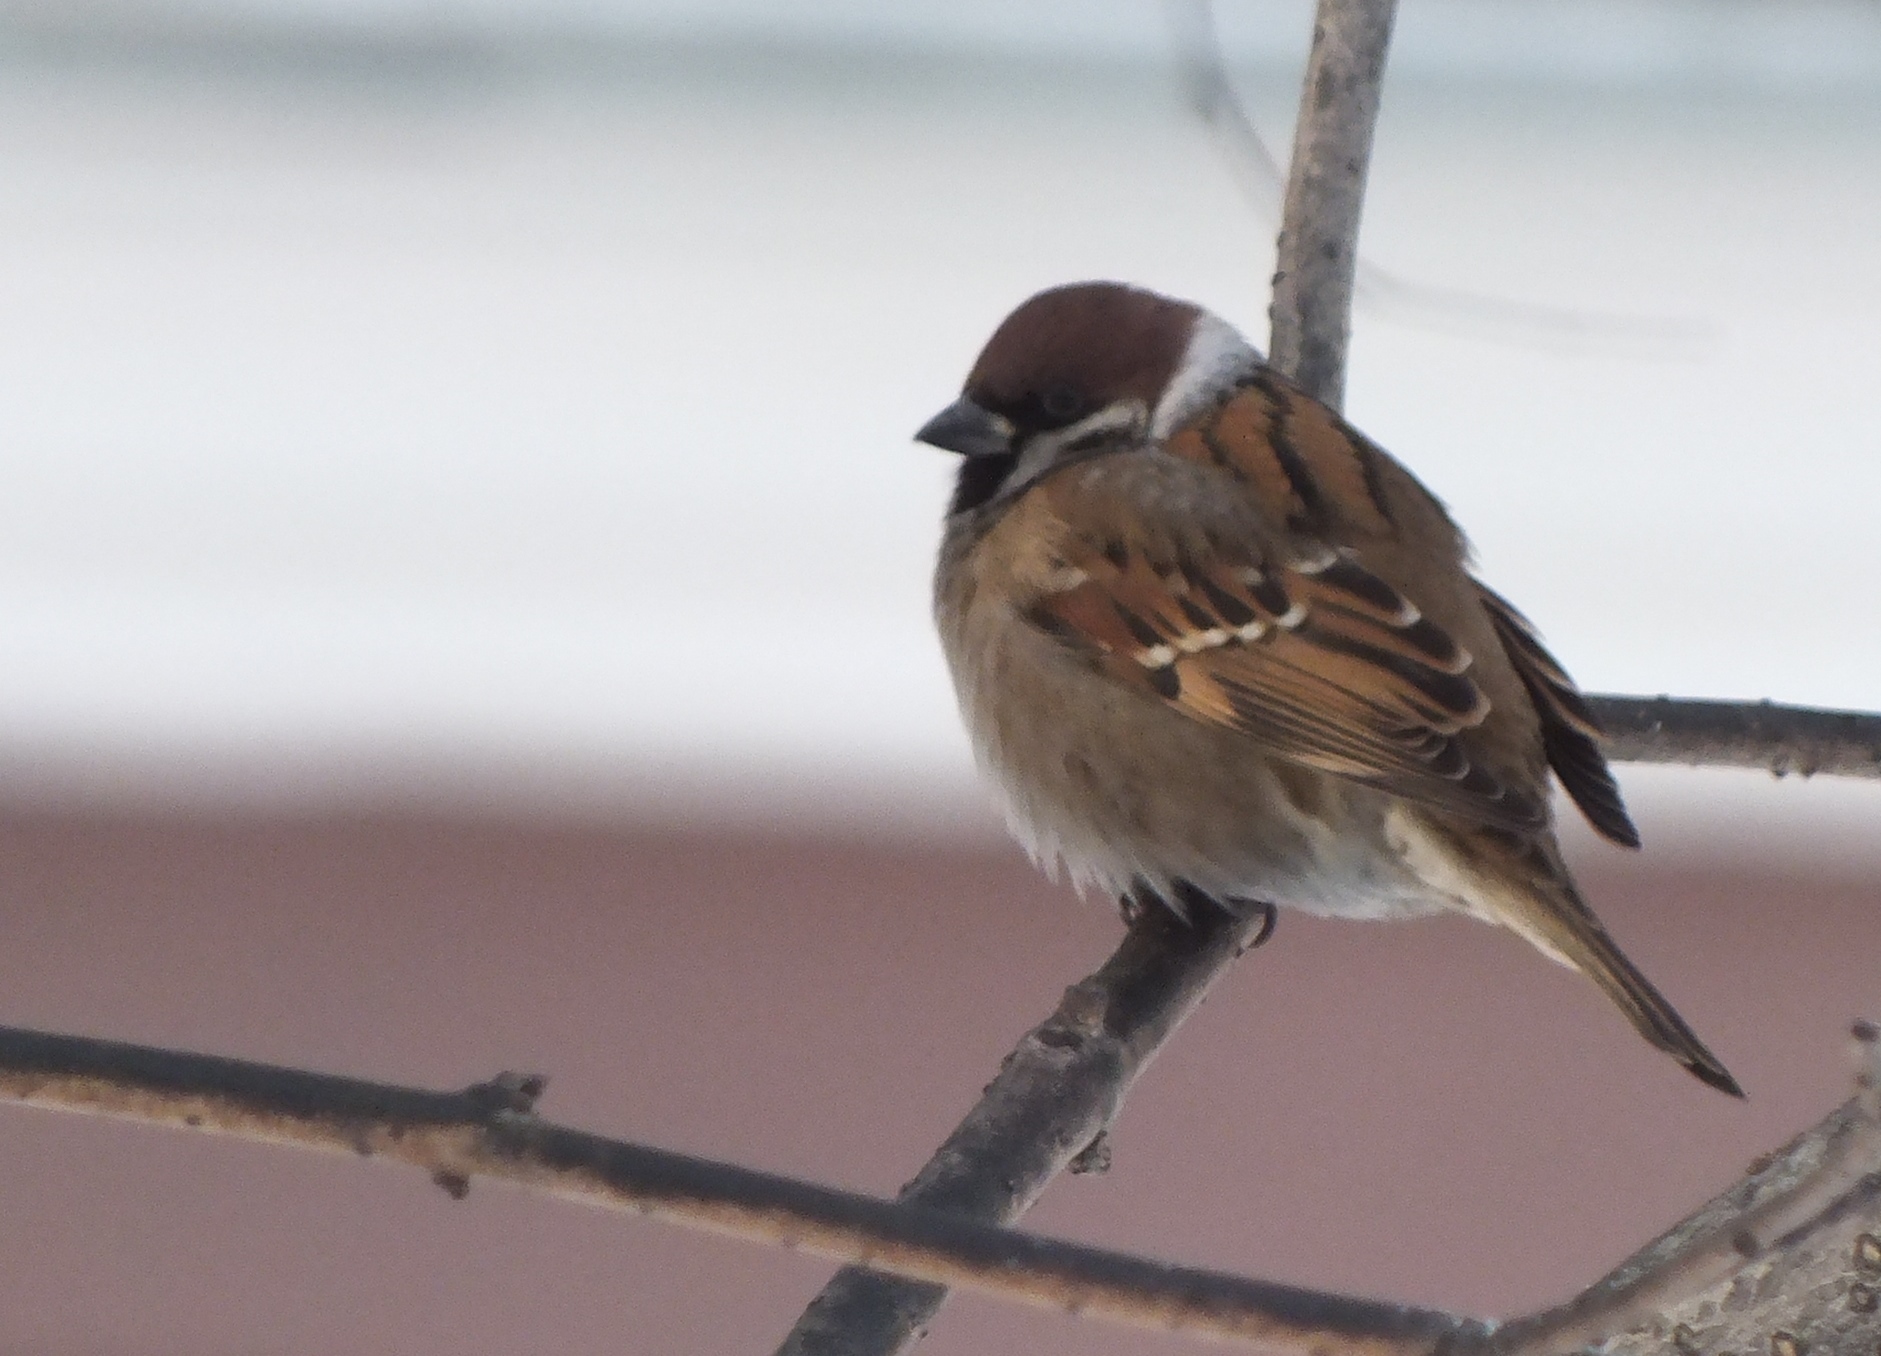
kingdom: Animalia
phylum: Chordata
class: Aves
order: Passeriformes
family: Passeridae
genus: Passer
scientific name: Passer montanus
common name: Eurasian tree sparrow
